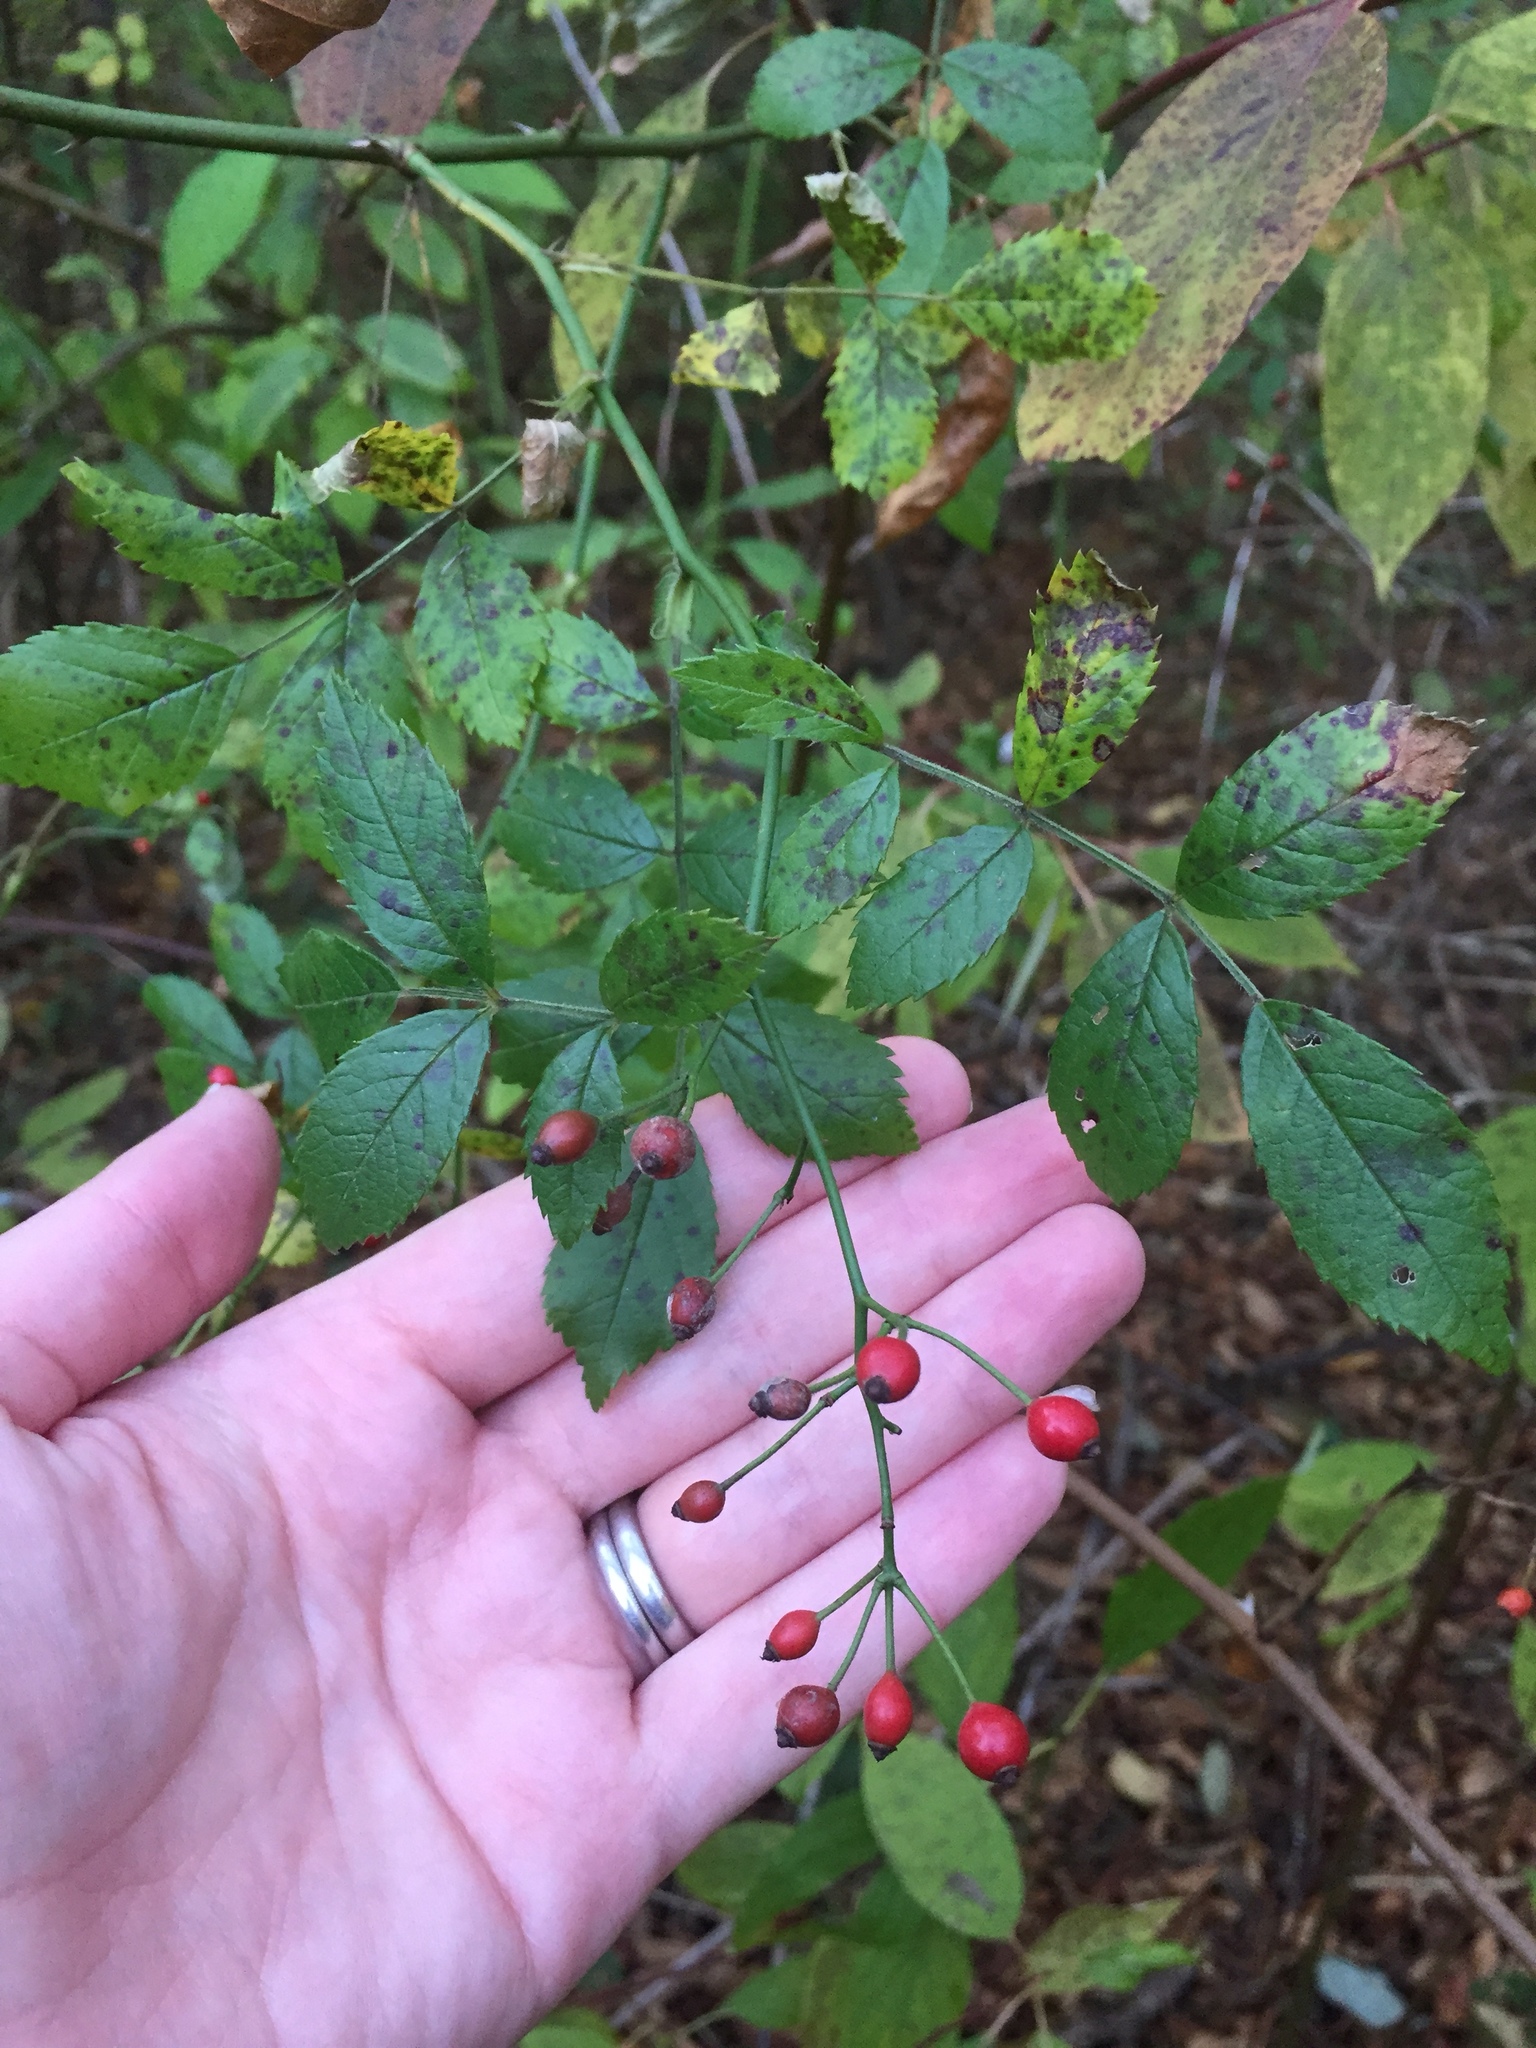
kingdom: Plantae
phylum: Tracheophyta
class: Magnoliopsida
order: Rosales
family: Rosaceae
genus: Rosa
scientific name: Rosa multiflora
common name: Multiflora rose
